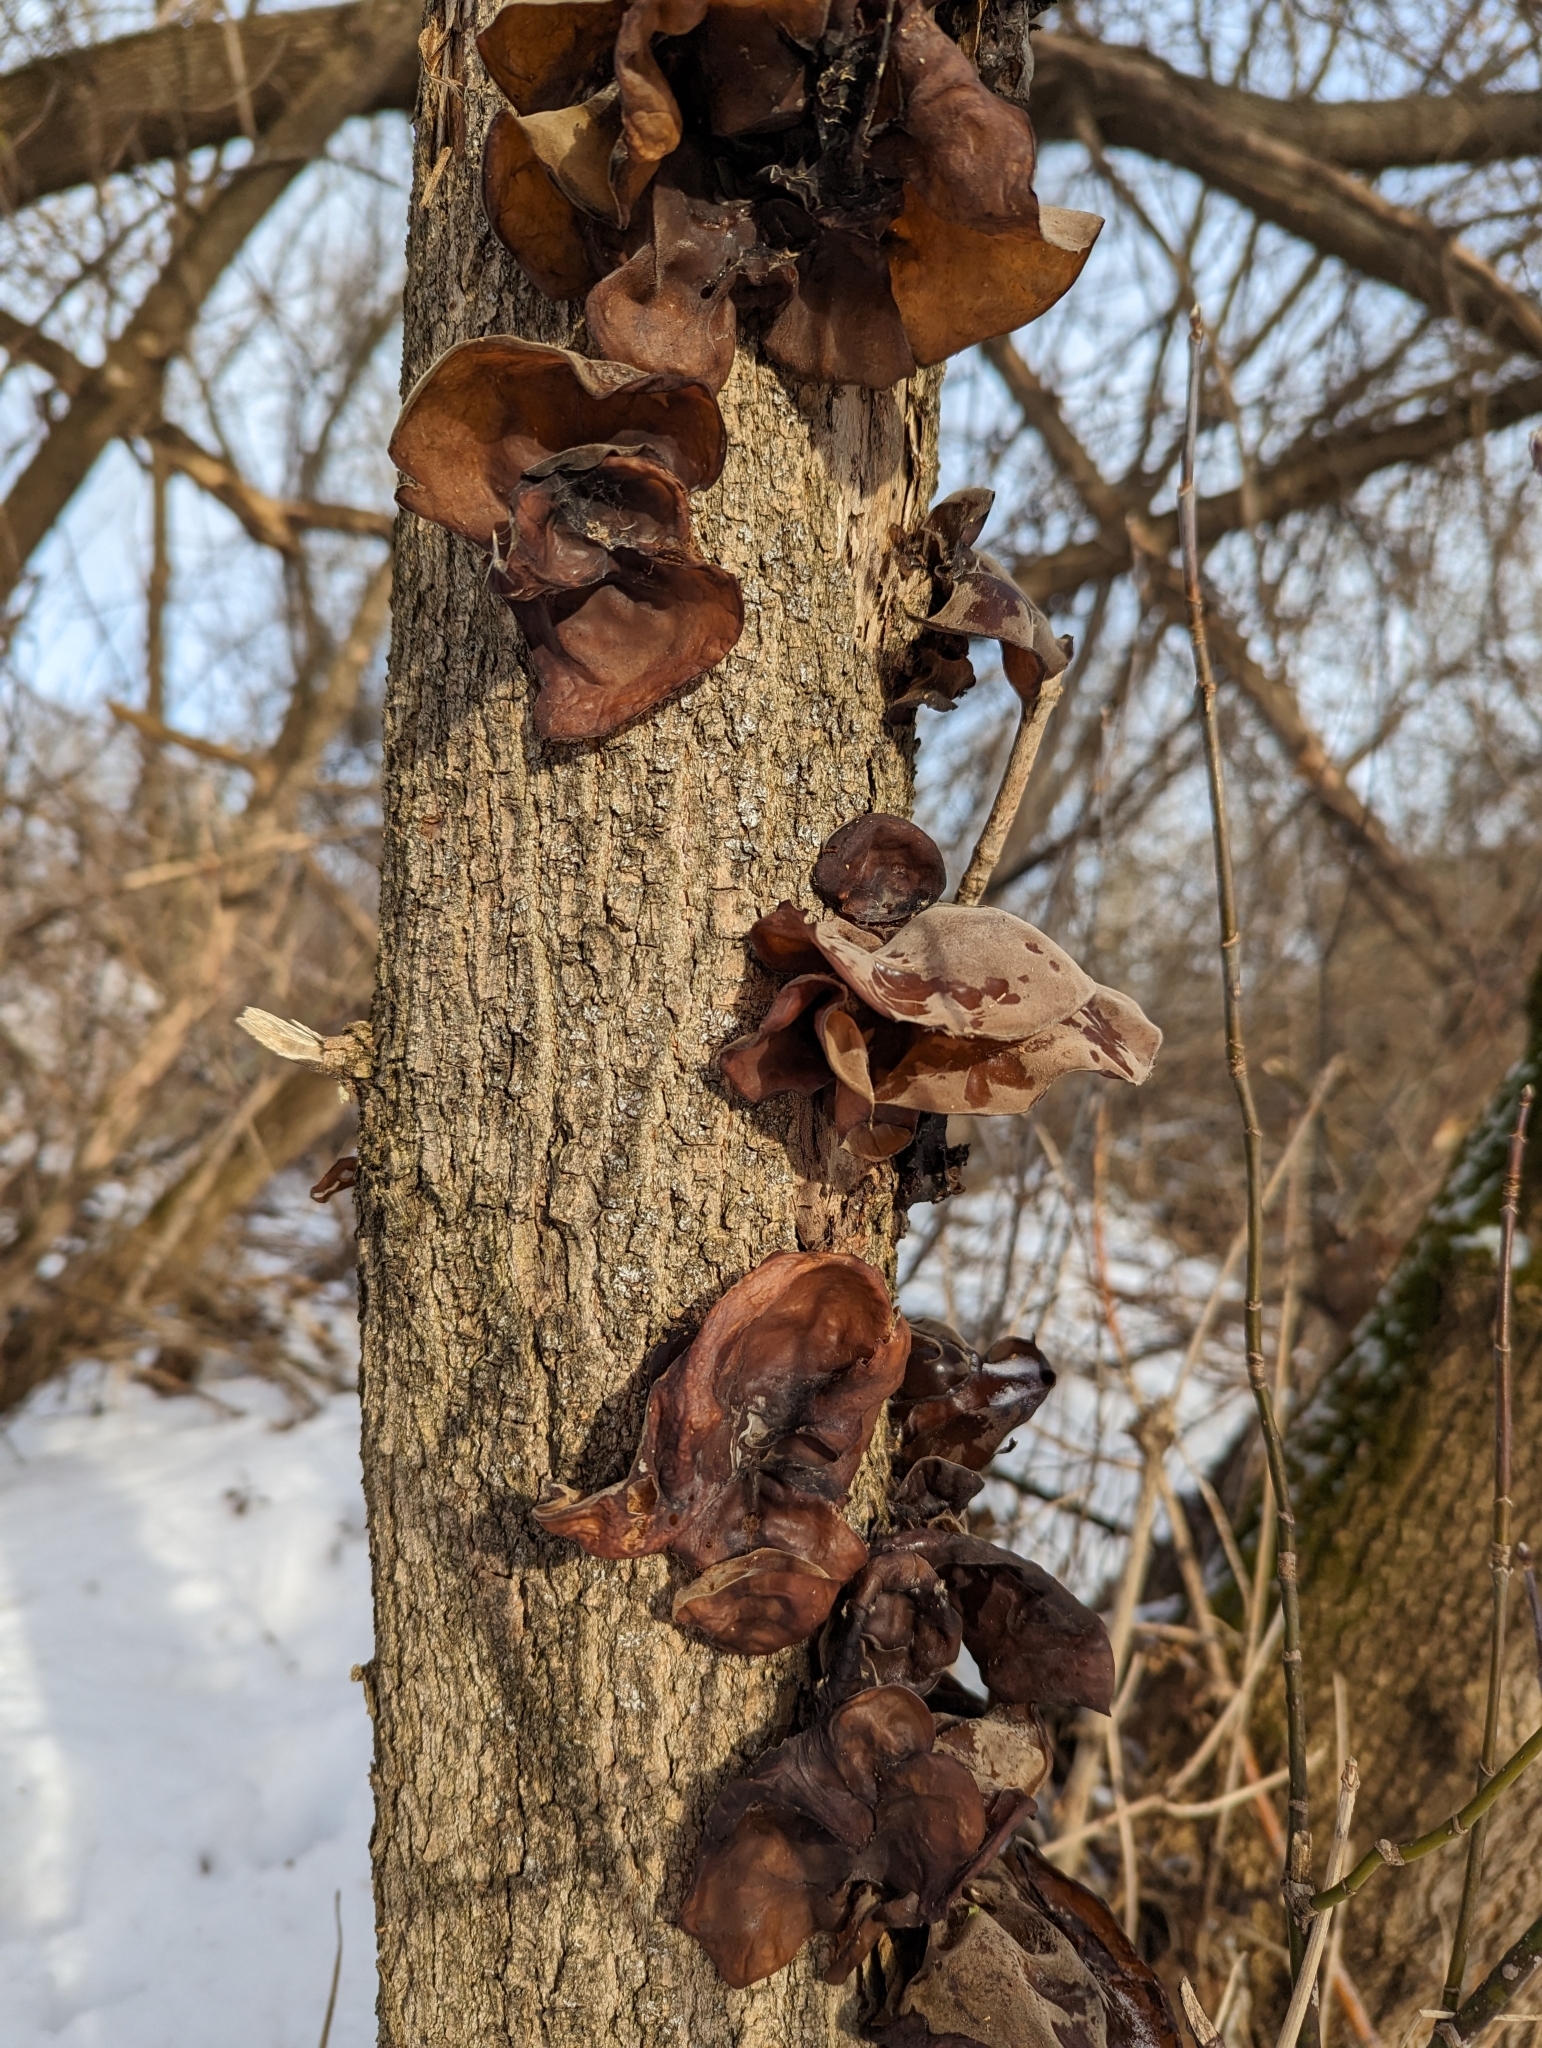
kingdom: Fungi
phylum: Basidiomycota
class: Agaricomycetes
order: Auriculariales
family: Auriculariaceae
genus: Auricularia
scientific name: Auricularia auricula-judae
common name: Jelly ear
